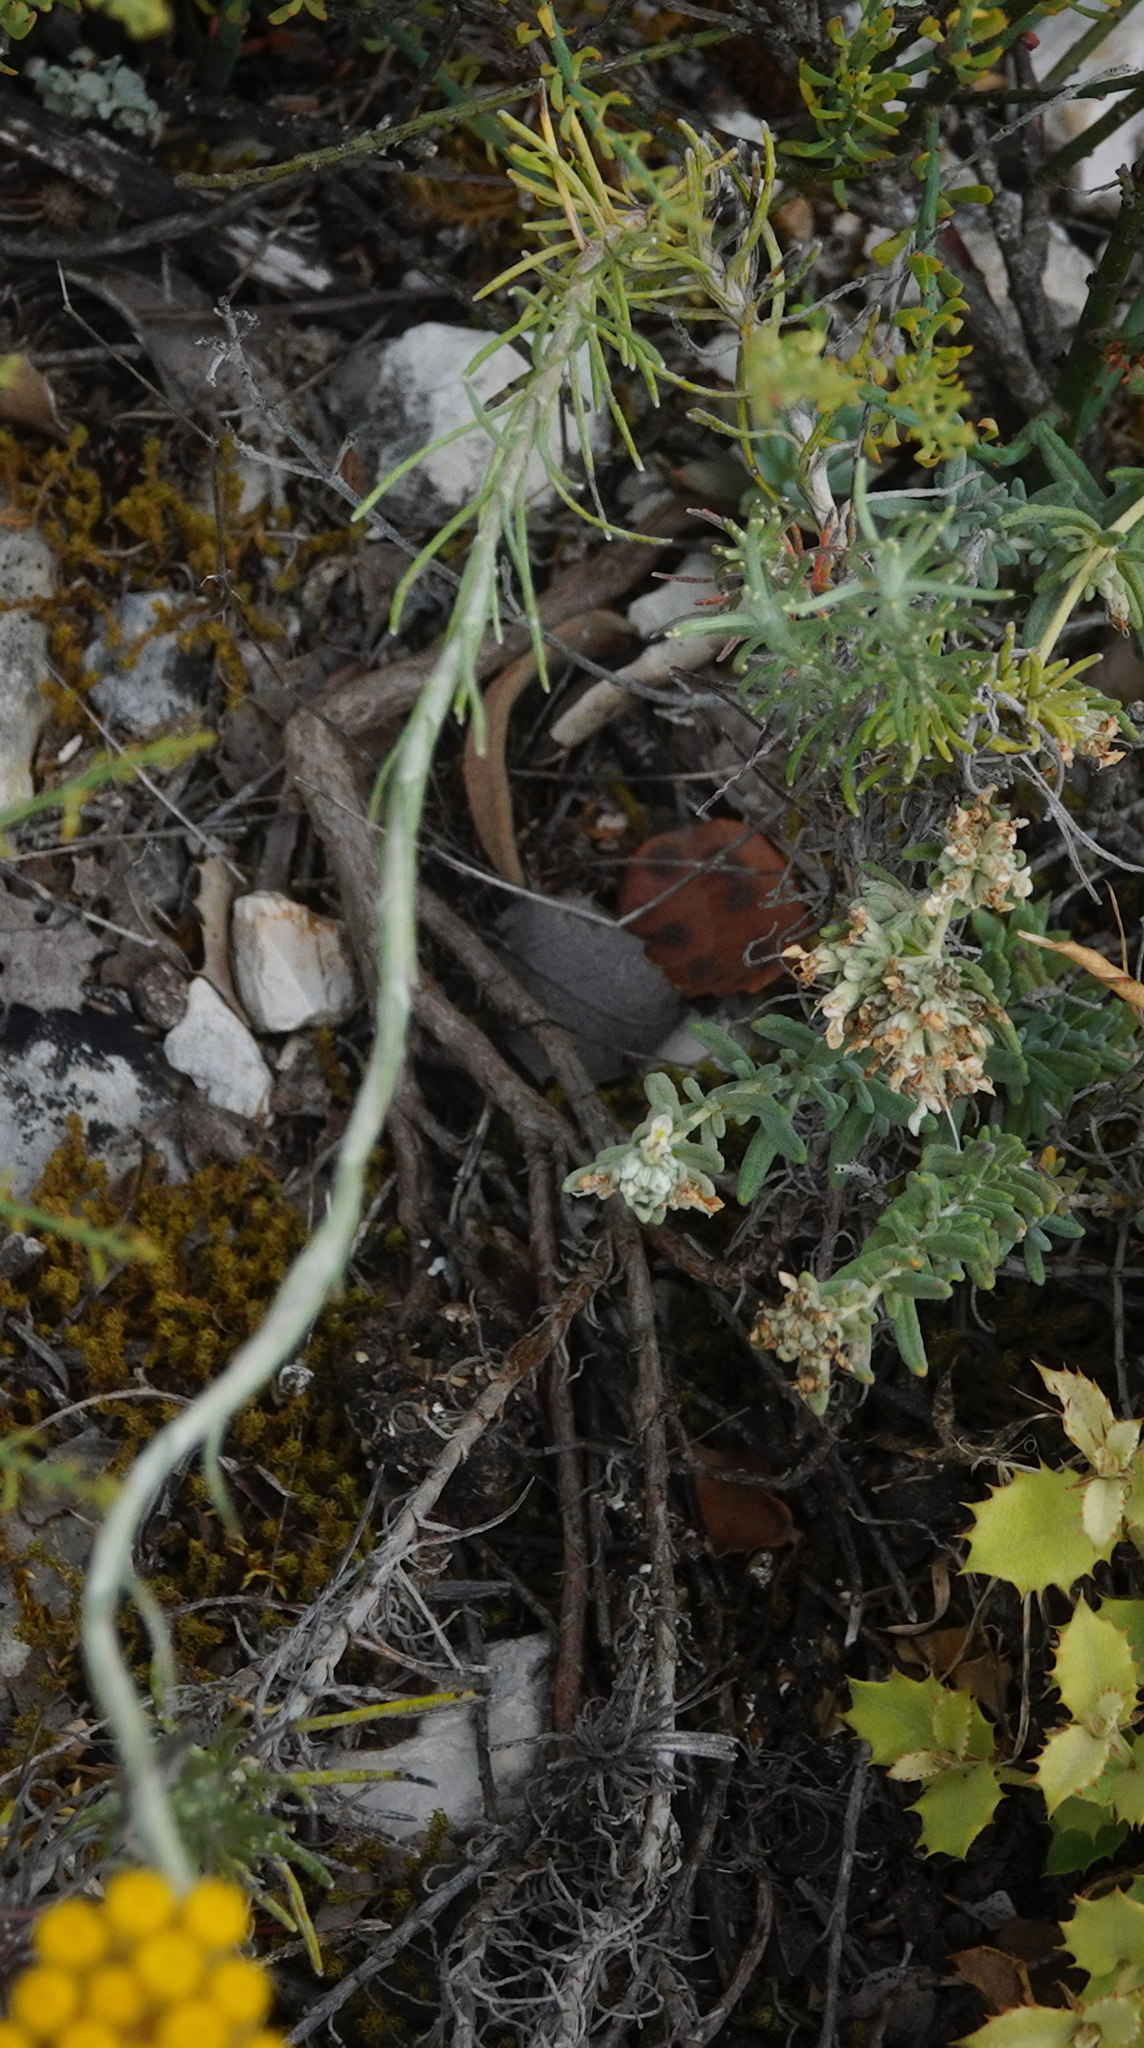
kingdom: Plantae
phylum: Tracheophyta
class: Magnoliopsida
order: Asterales
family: Asteraceae
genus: Helichrysum
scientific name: Helichrysum stoechas
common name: Goldilocks
